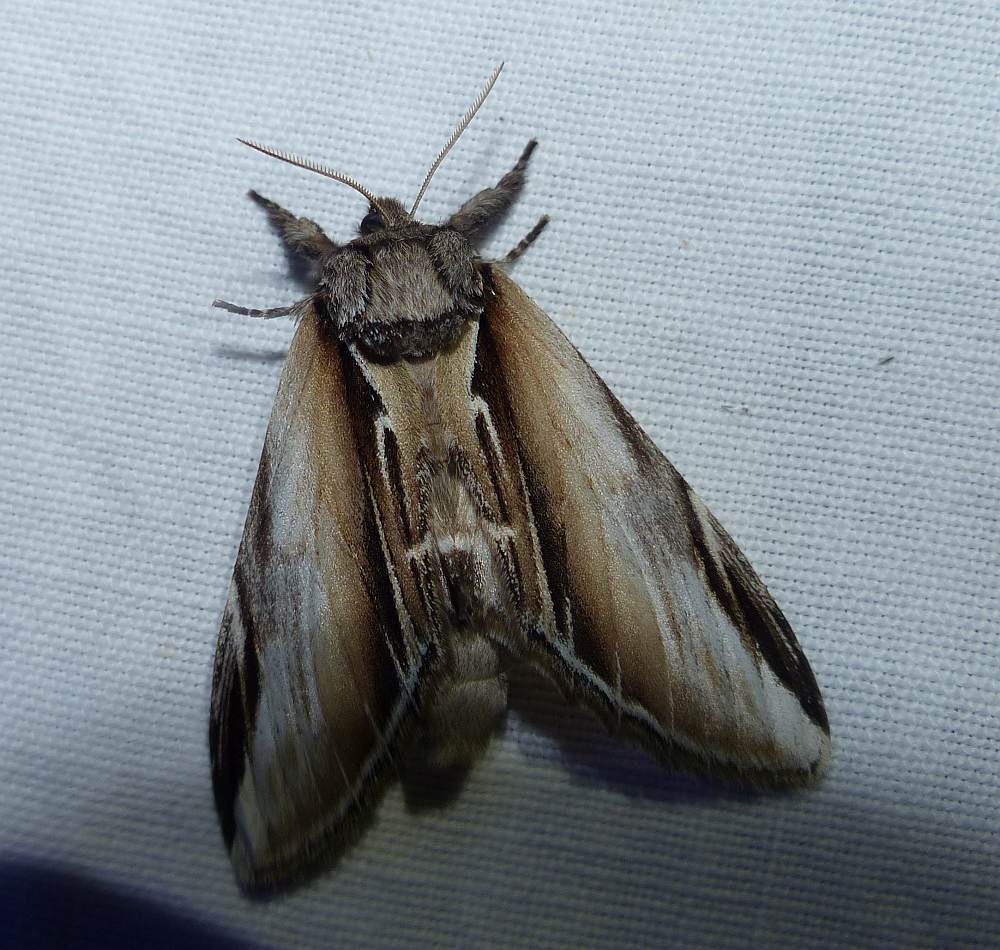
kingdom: Animalia
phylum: Arthropoda
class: Insecta
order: Lepidoptera
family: Notodontidae
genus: Pheosia
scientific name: Pheosia rimosa
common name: Black-rimmed prominent
